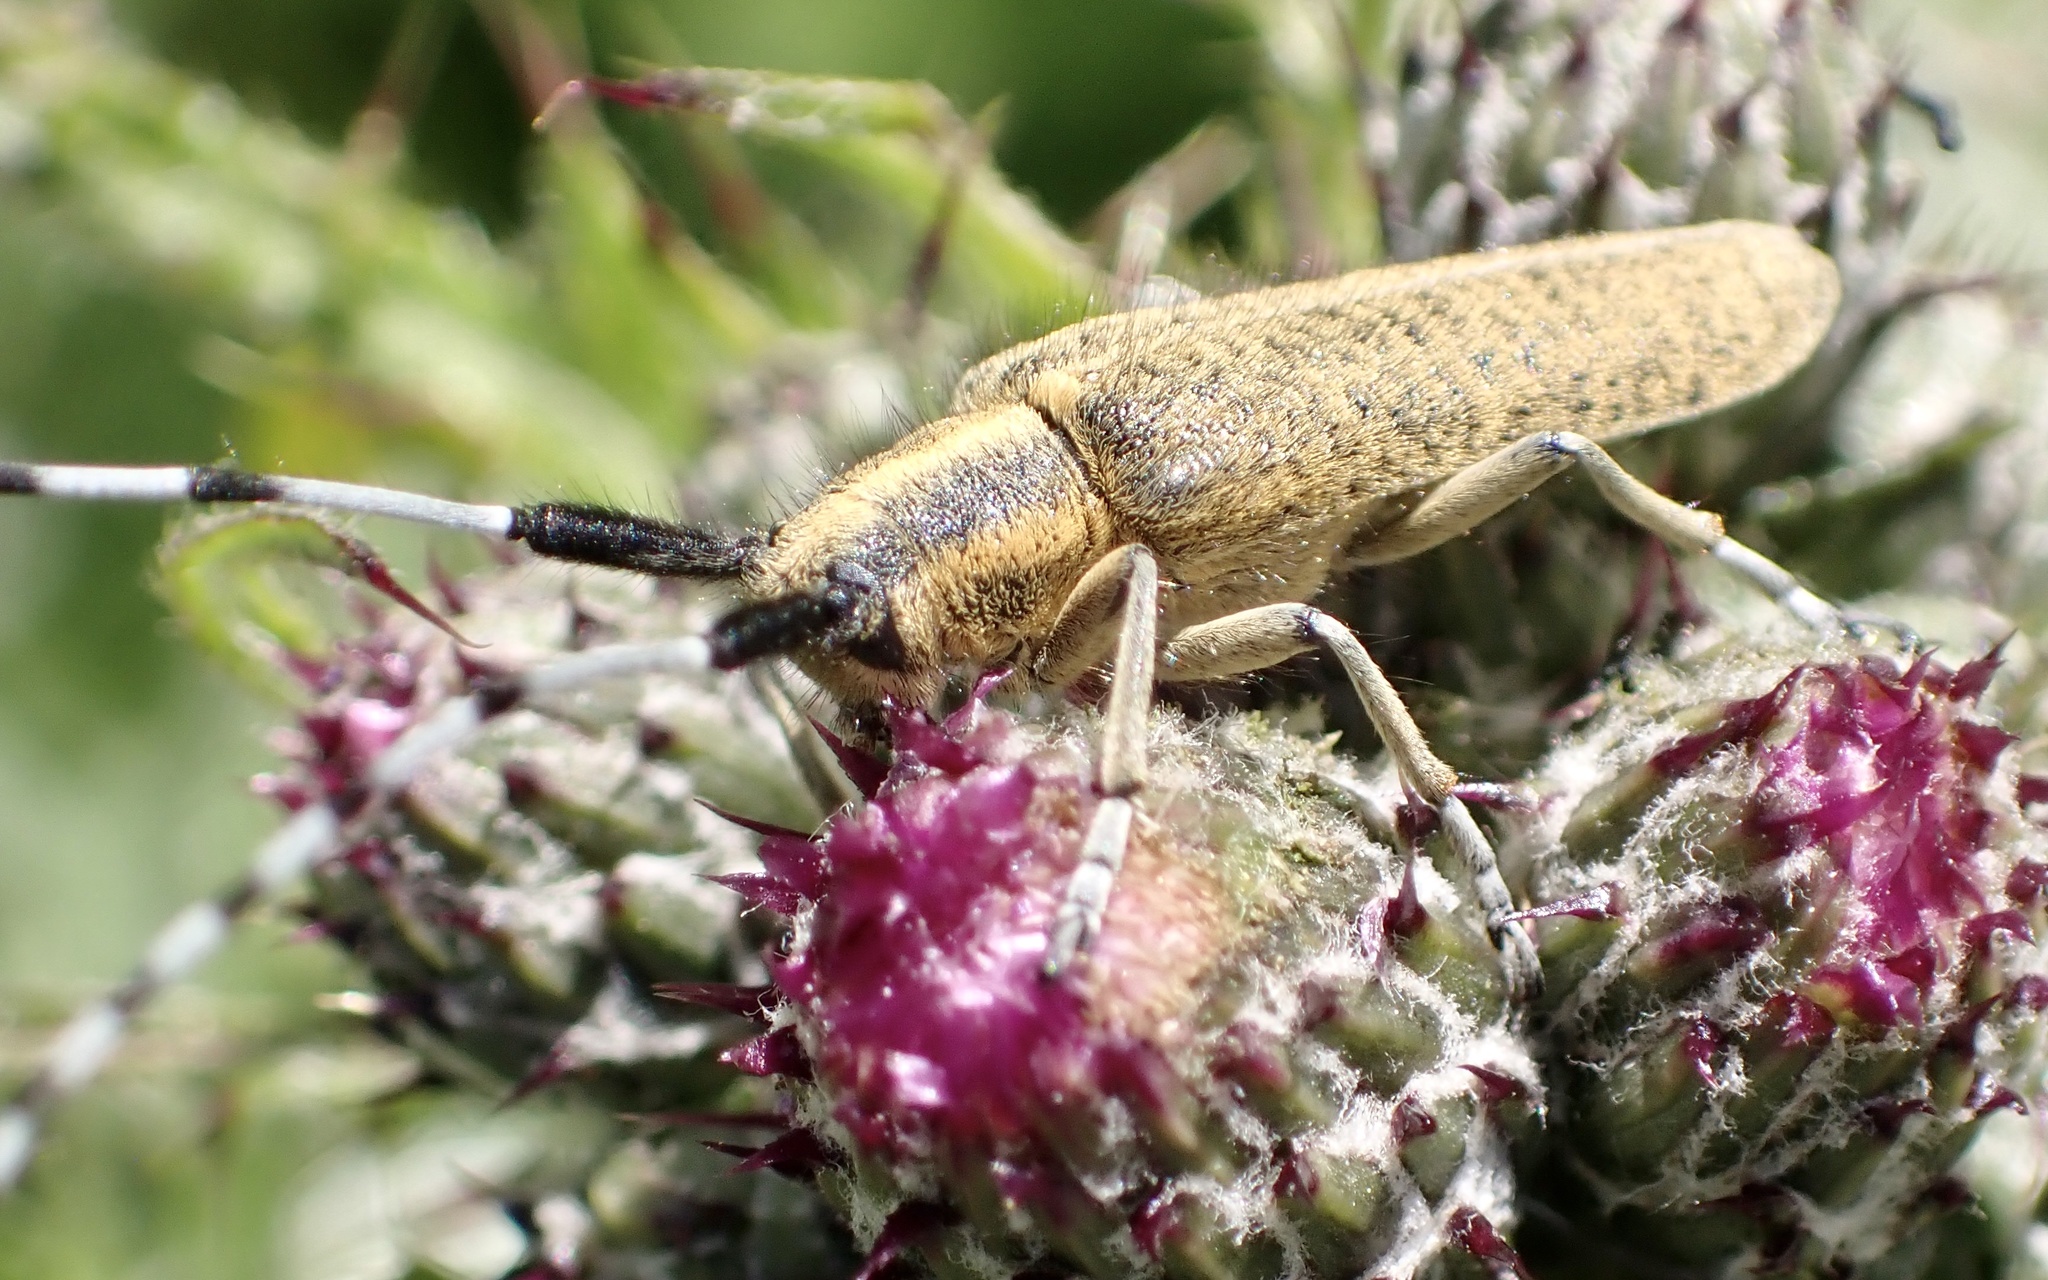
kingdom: Animalia
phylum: Arthropoda
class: Insecta
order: Coleoptera
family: Cerambycidae
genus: Agapanthia
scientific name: Agapanthia villosoviridescens
